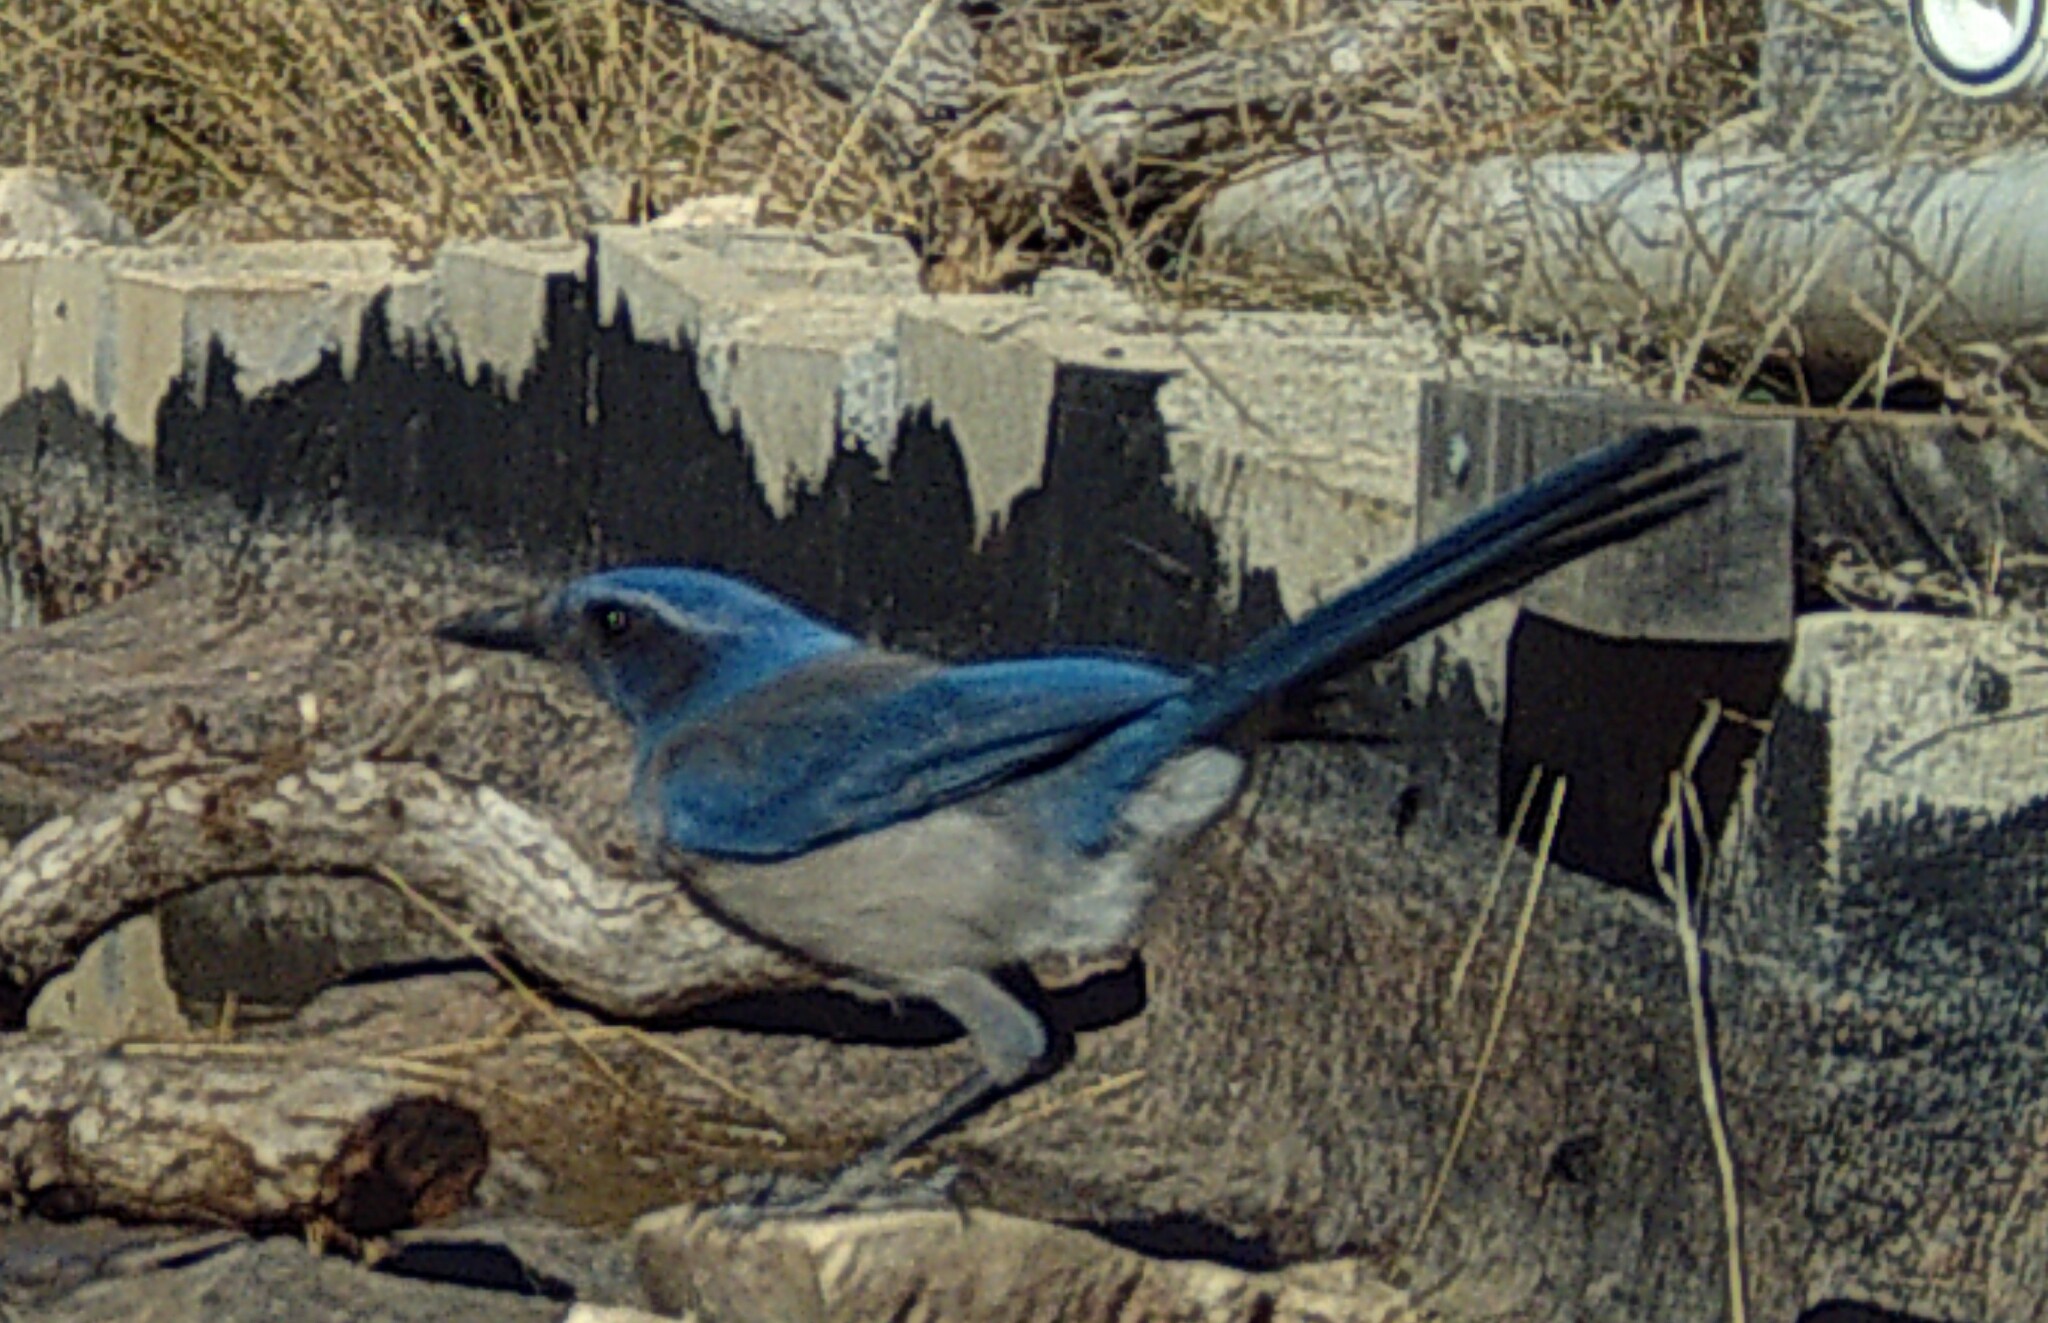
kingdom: Animalia
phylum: Chordata
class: Aves
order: Passeriformes
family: Corvidae
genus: Aphelocoma
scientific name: Aphelocoma woodhouseii
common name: Woodhouse's scrub-jay
